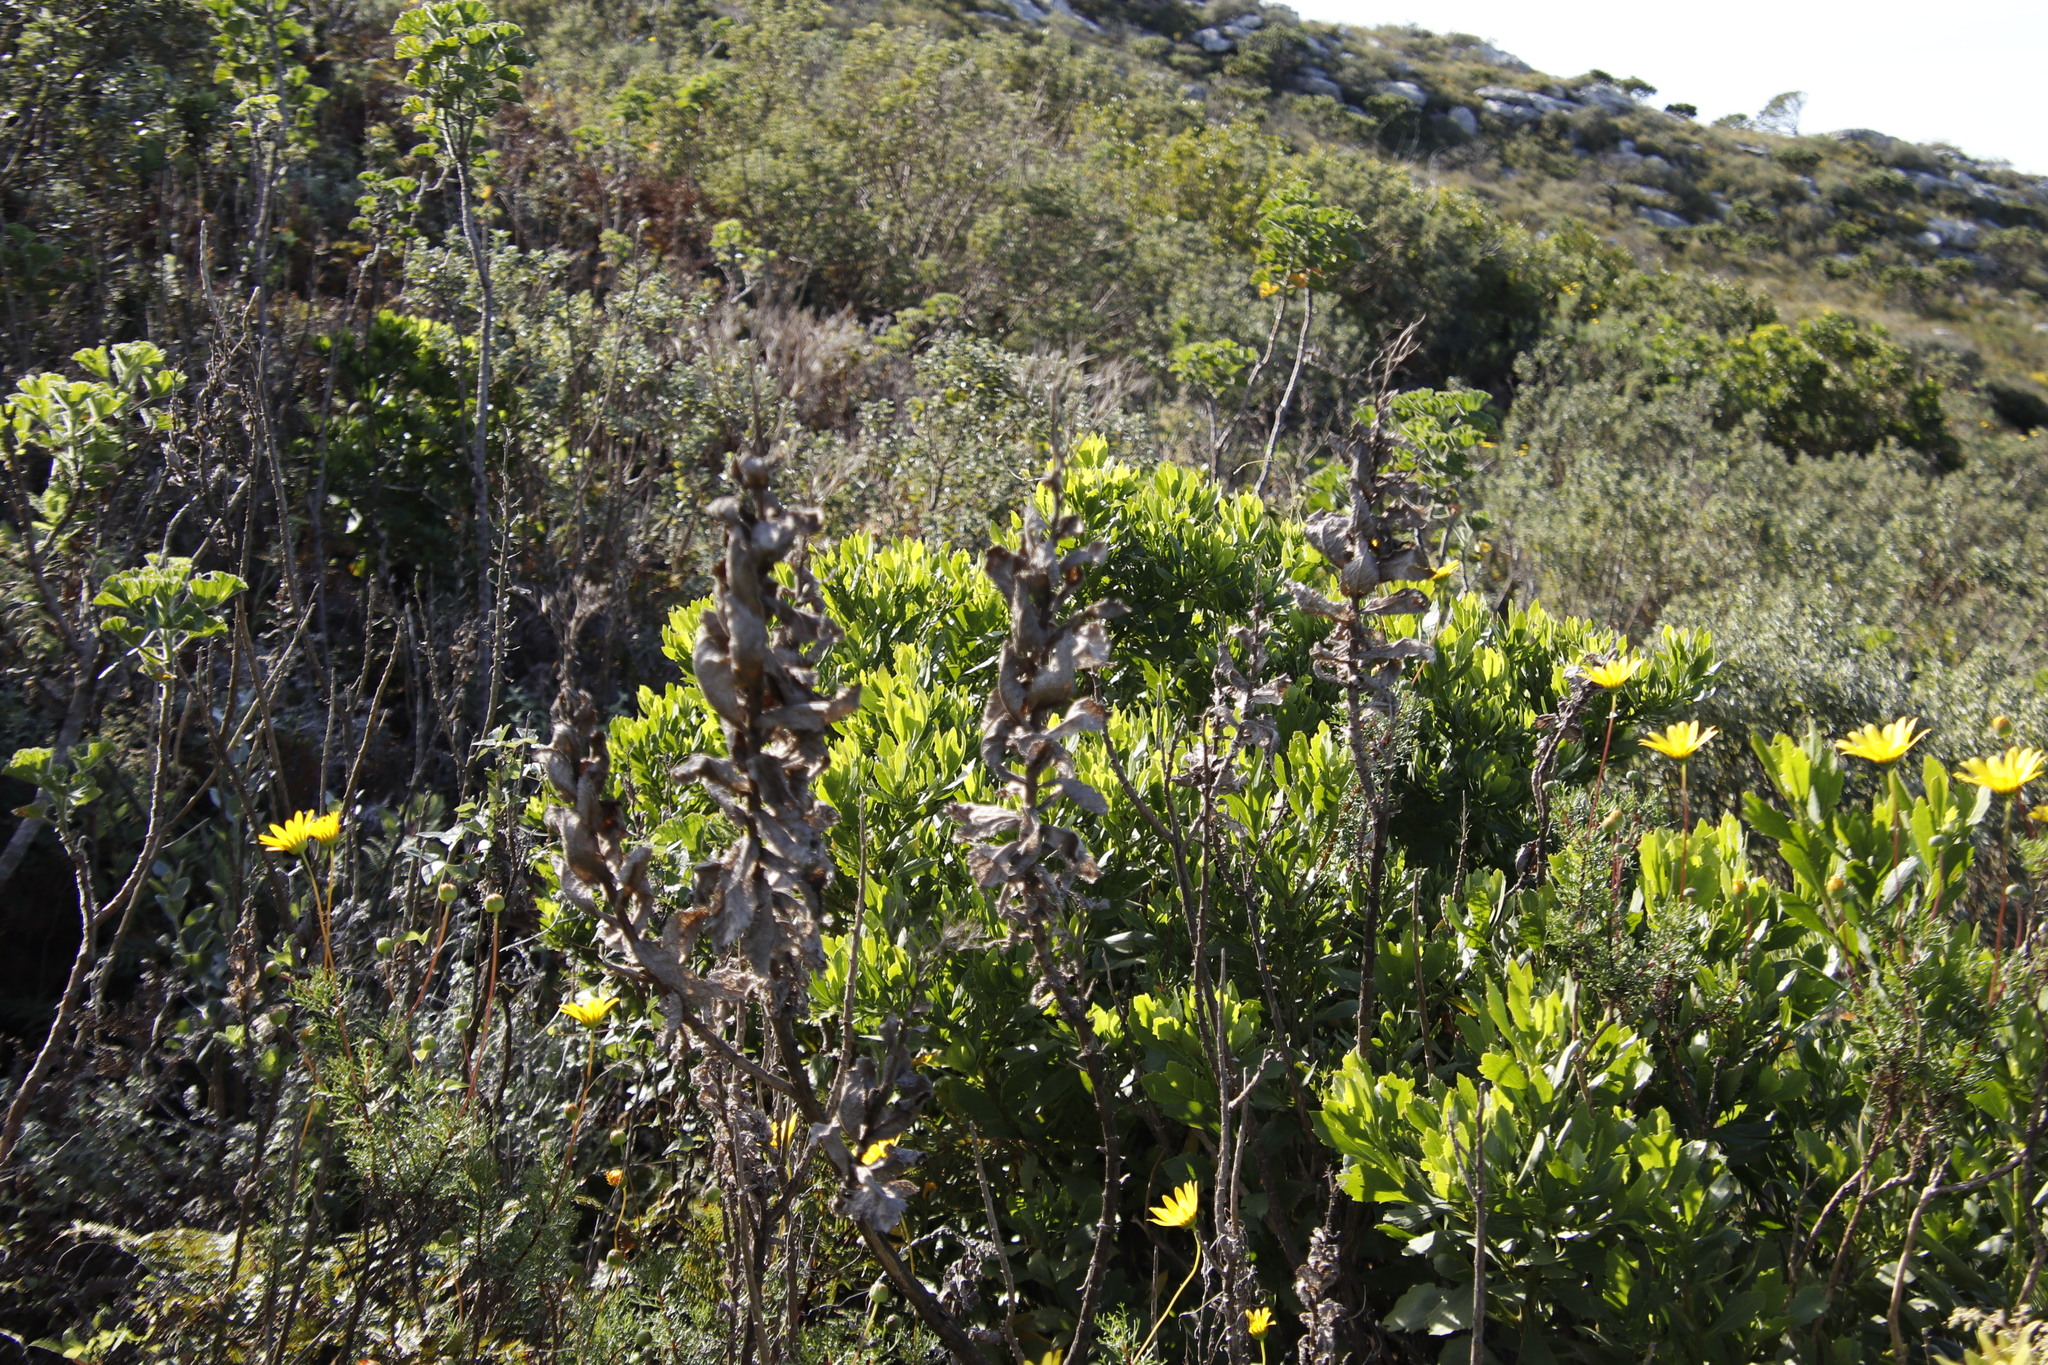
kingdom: Plantae
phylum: Tracheophyta
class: Magnoliopsida
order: Asterales
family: Asteraceae
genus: Senecio
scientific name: Senecio rigidus
